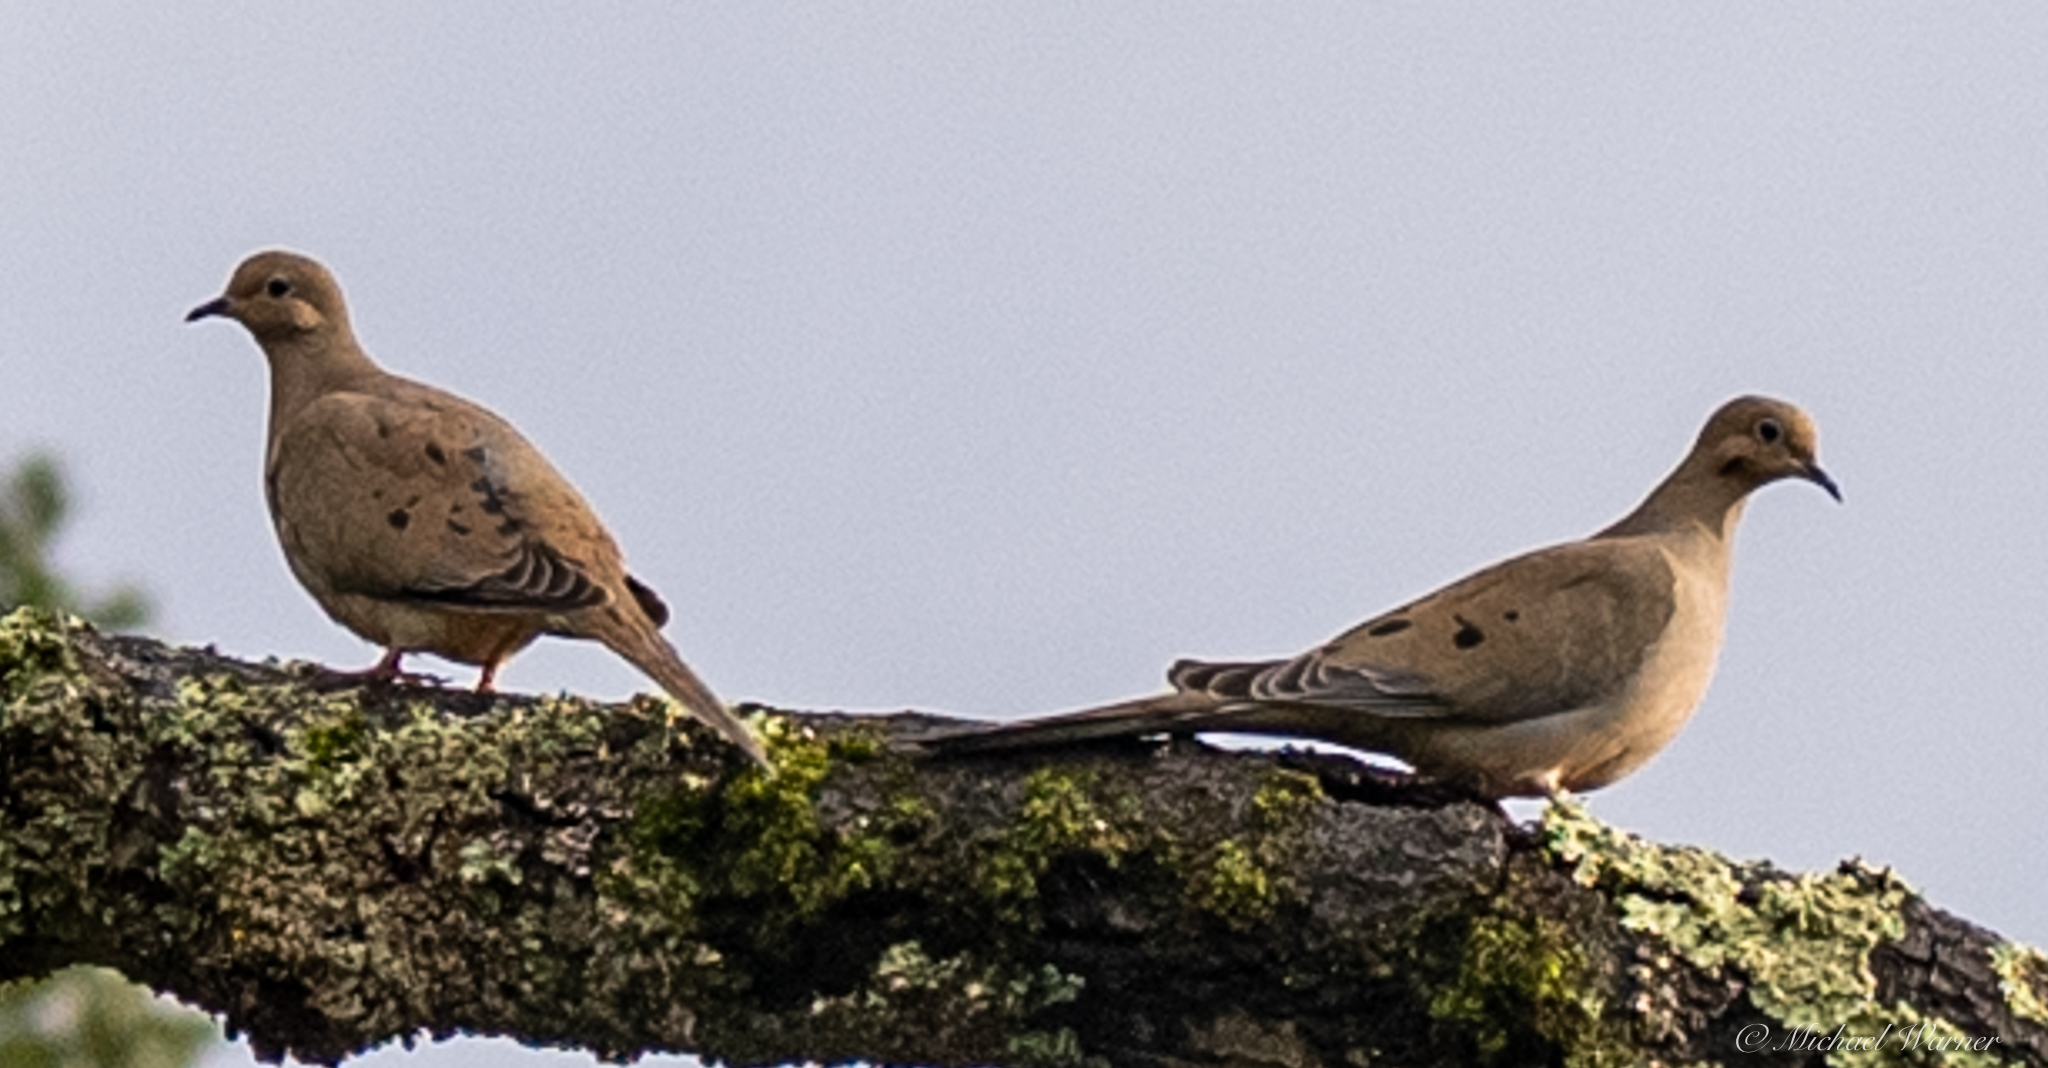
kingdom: Animalia
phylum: Chordata
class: Aves
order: Columbiformes
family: Columbidae
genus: Zenaida
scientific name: Zenaida macroura
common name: Mourning dove
